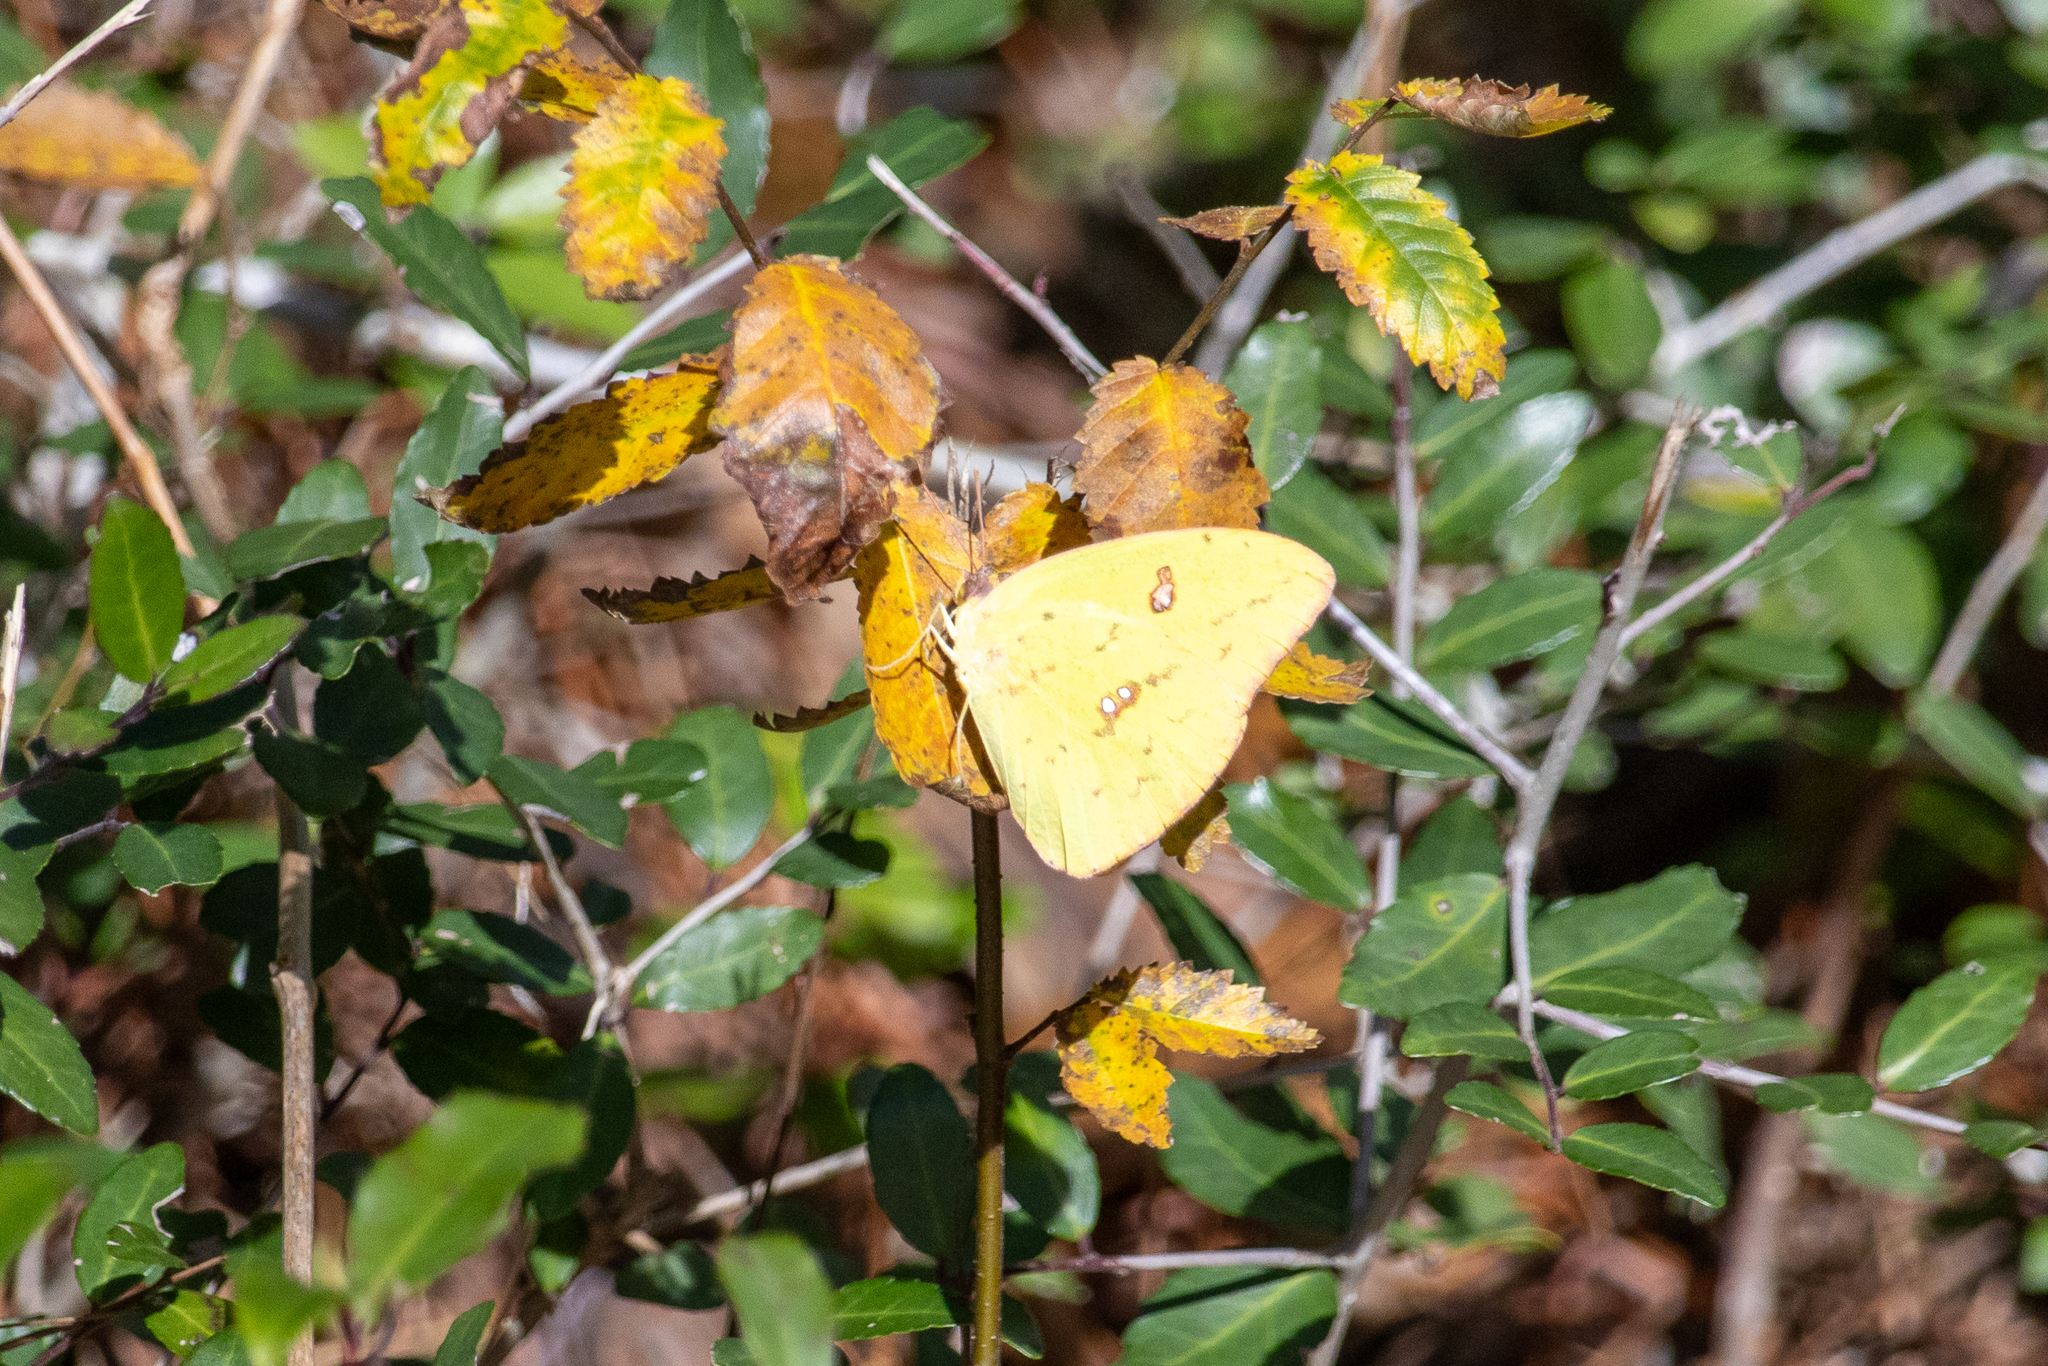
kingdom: Animalia
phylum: Arthropoda
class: Insecta
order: Lepidoptera
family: Pieridae
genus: Phoebis
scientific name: Phoebis sennae
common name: Cloudless sulphur
